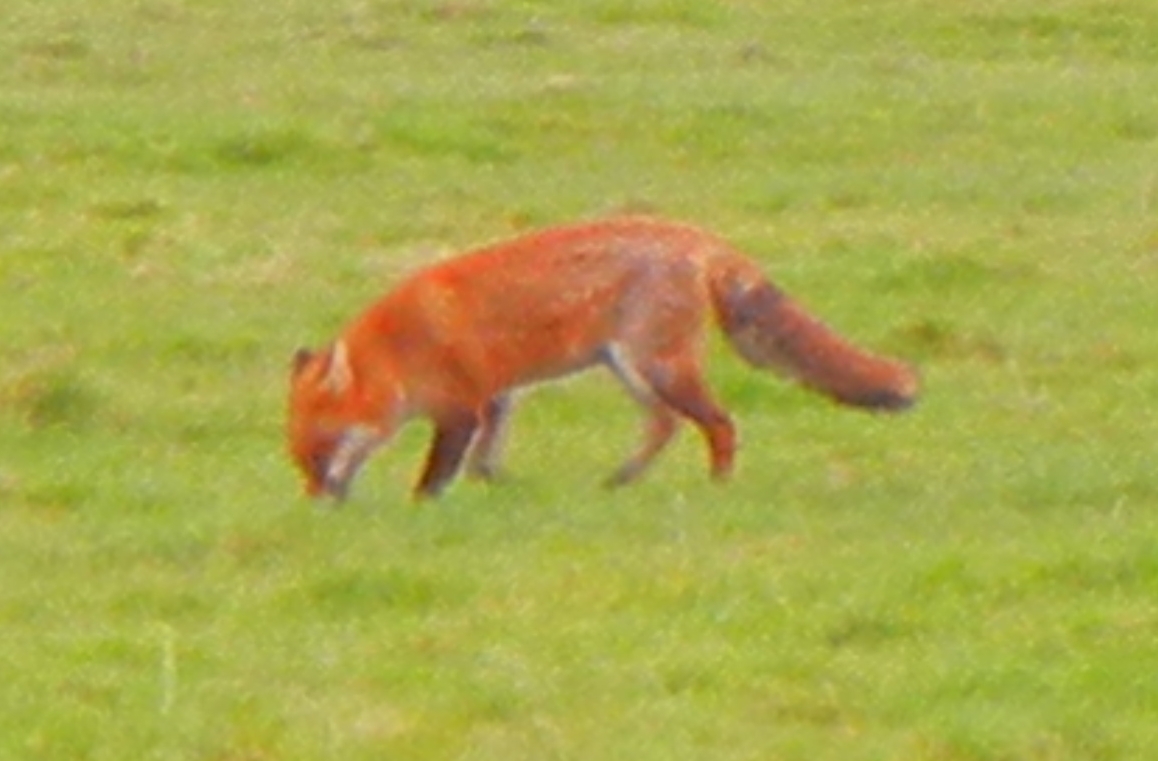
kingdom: Animalia
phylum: Chordata
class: Mammalia
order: Carnivora
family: Canidae
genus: Vulpes
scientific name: Vulpes vulpes
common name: Red fox
